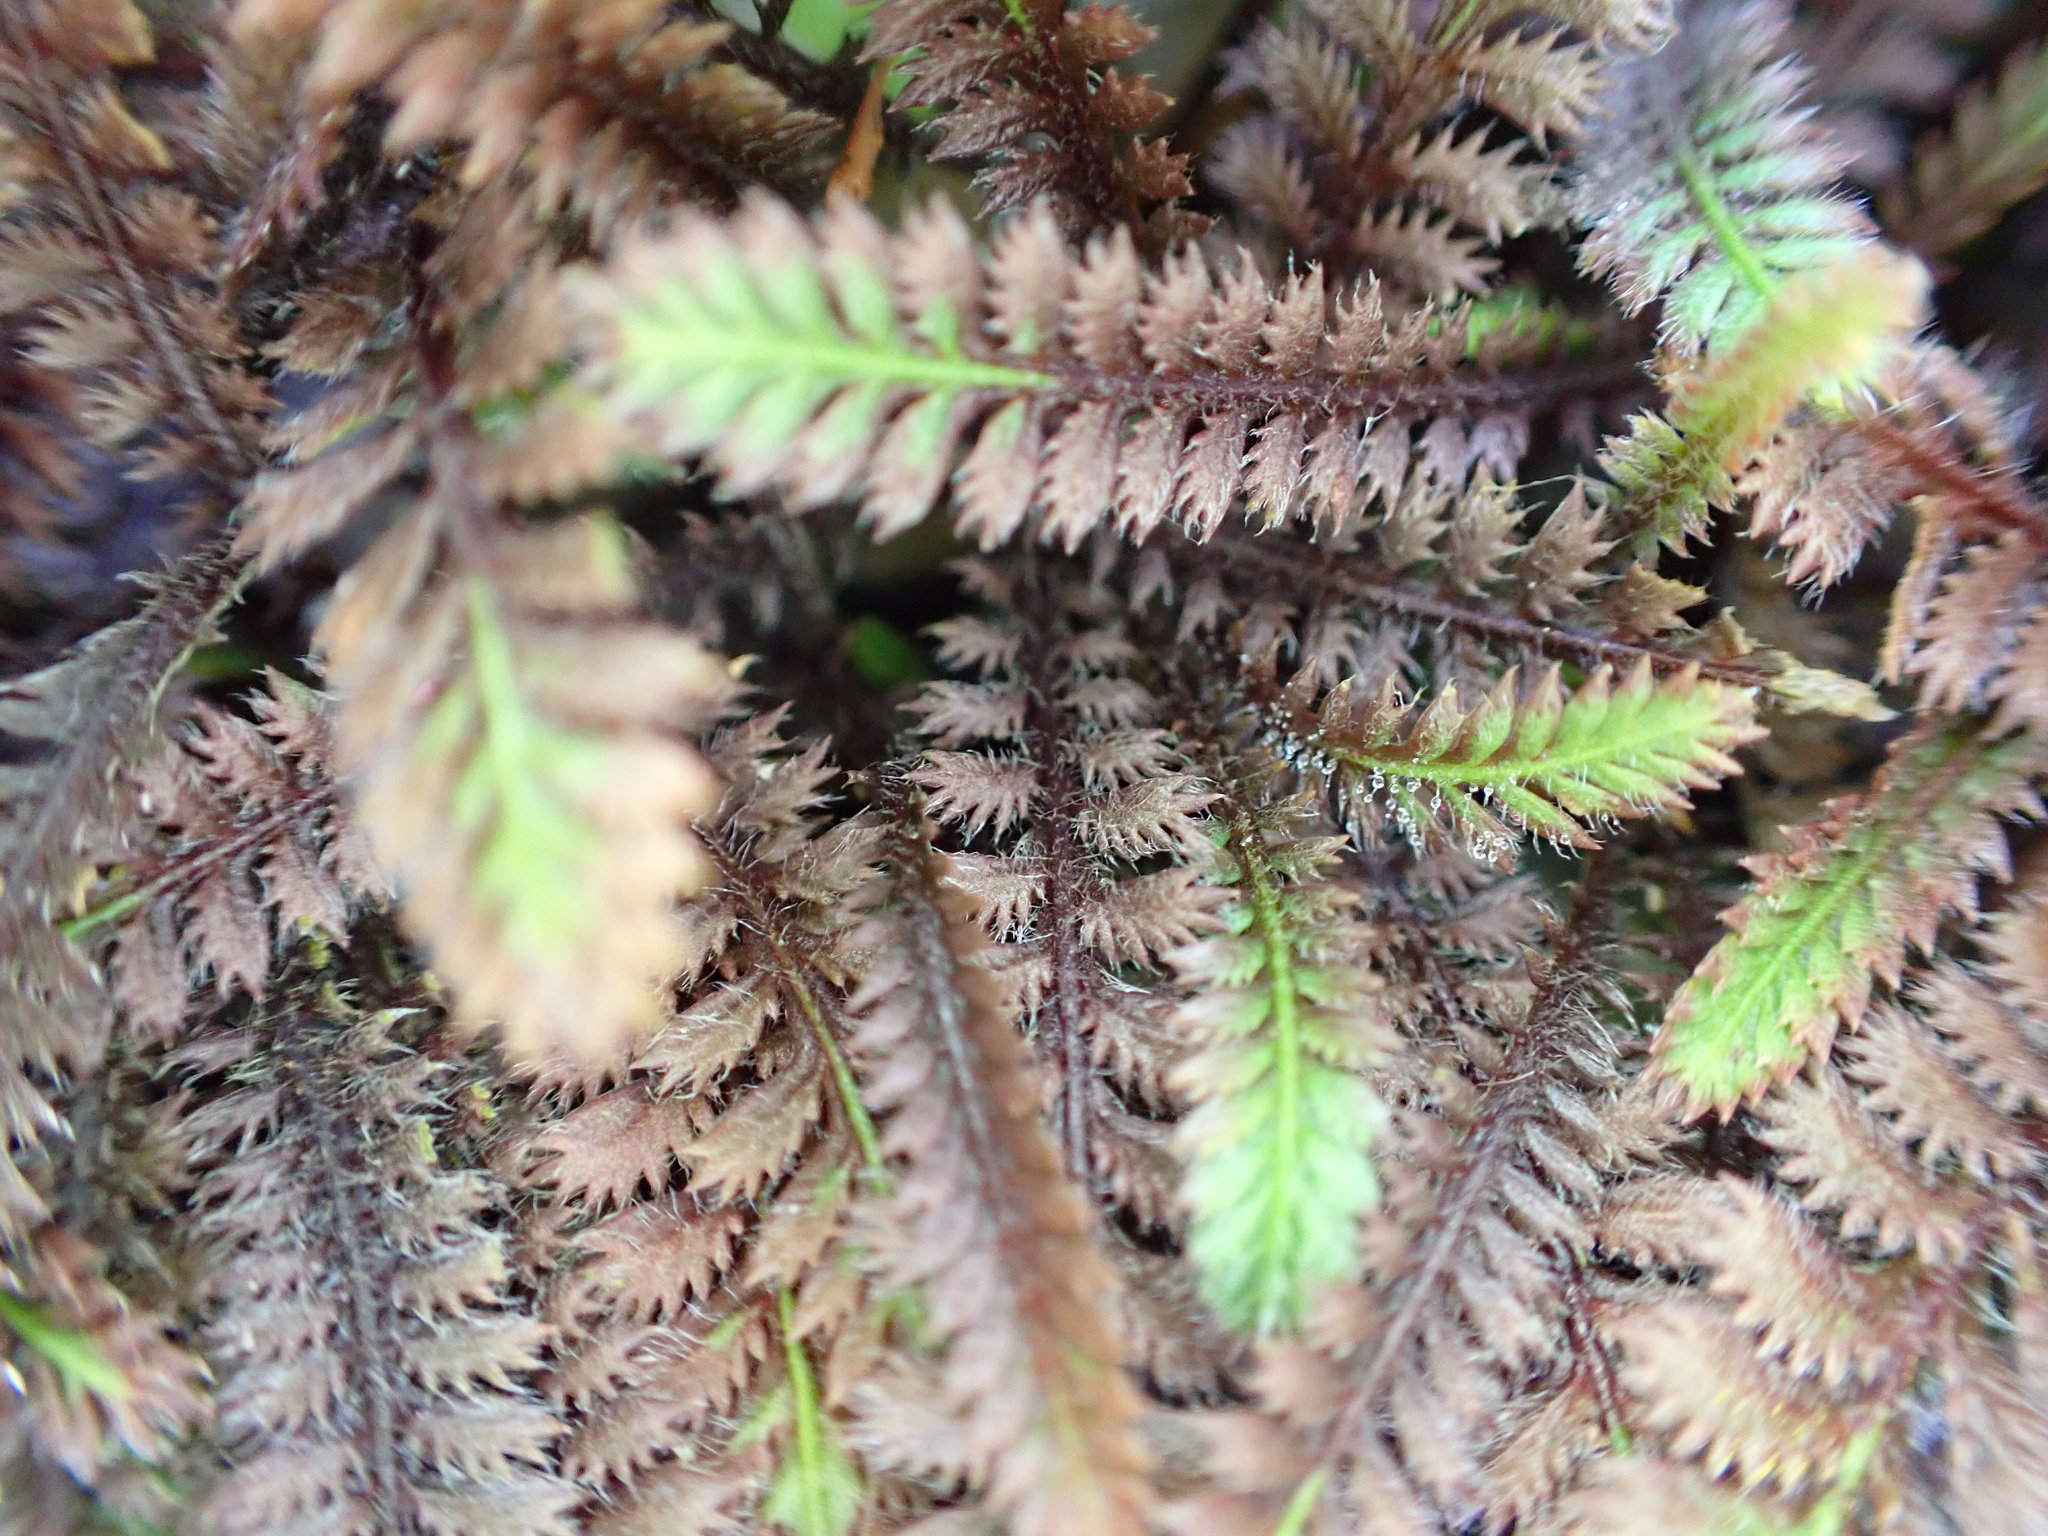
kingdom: Plantae
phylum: Tracheophyta
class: Magnoliopsida
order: Asterales
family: Asteraceae
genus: Leptinella
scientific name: Leptinella squalida
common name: New zealand brass-buttons
